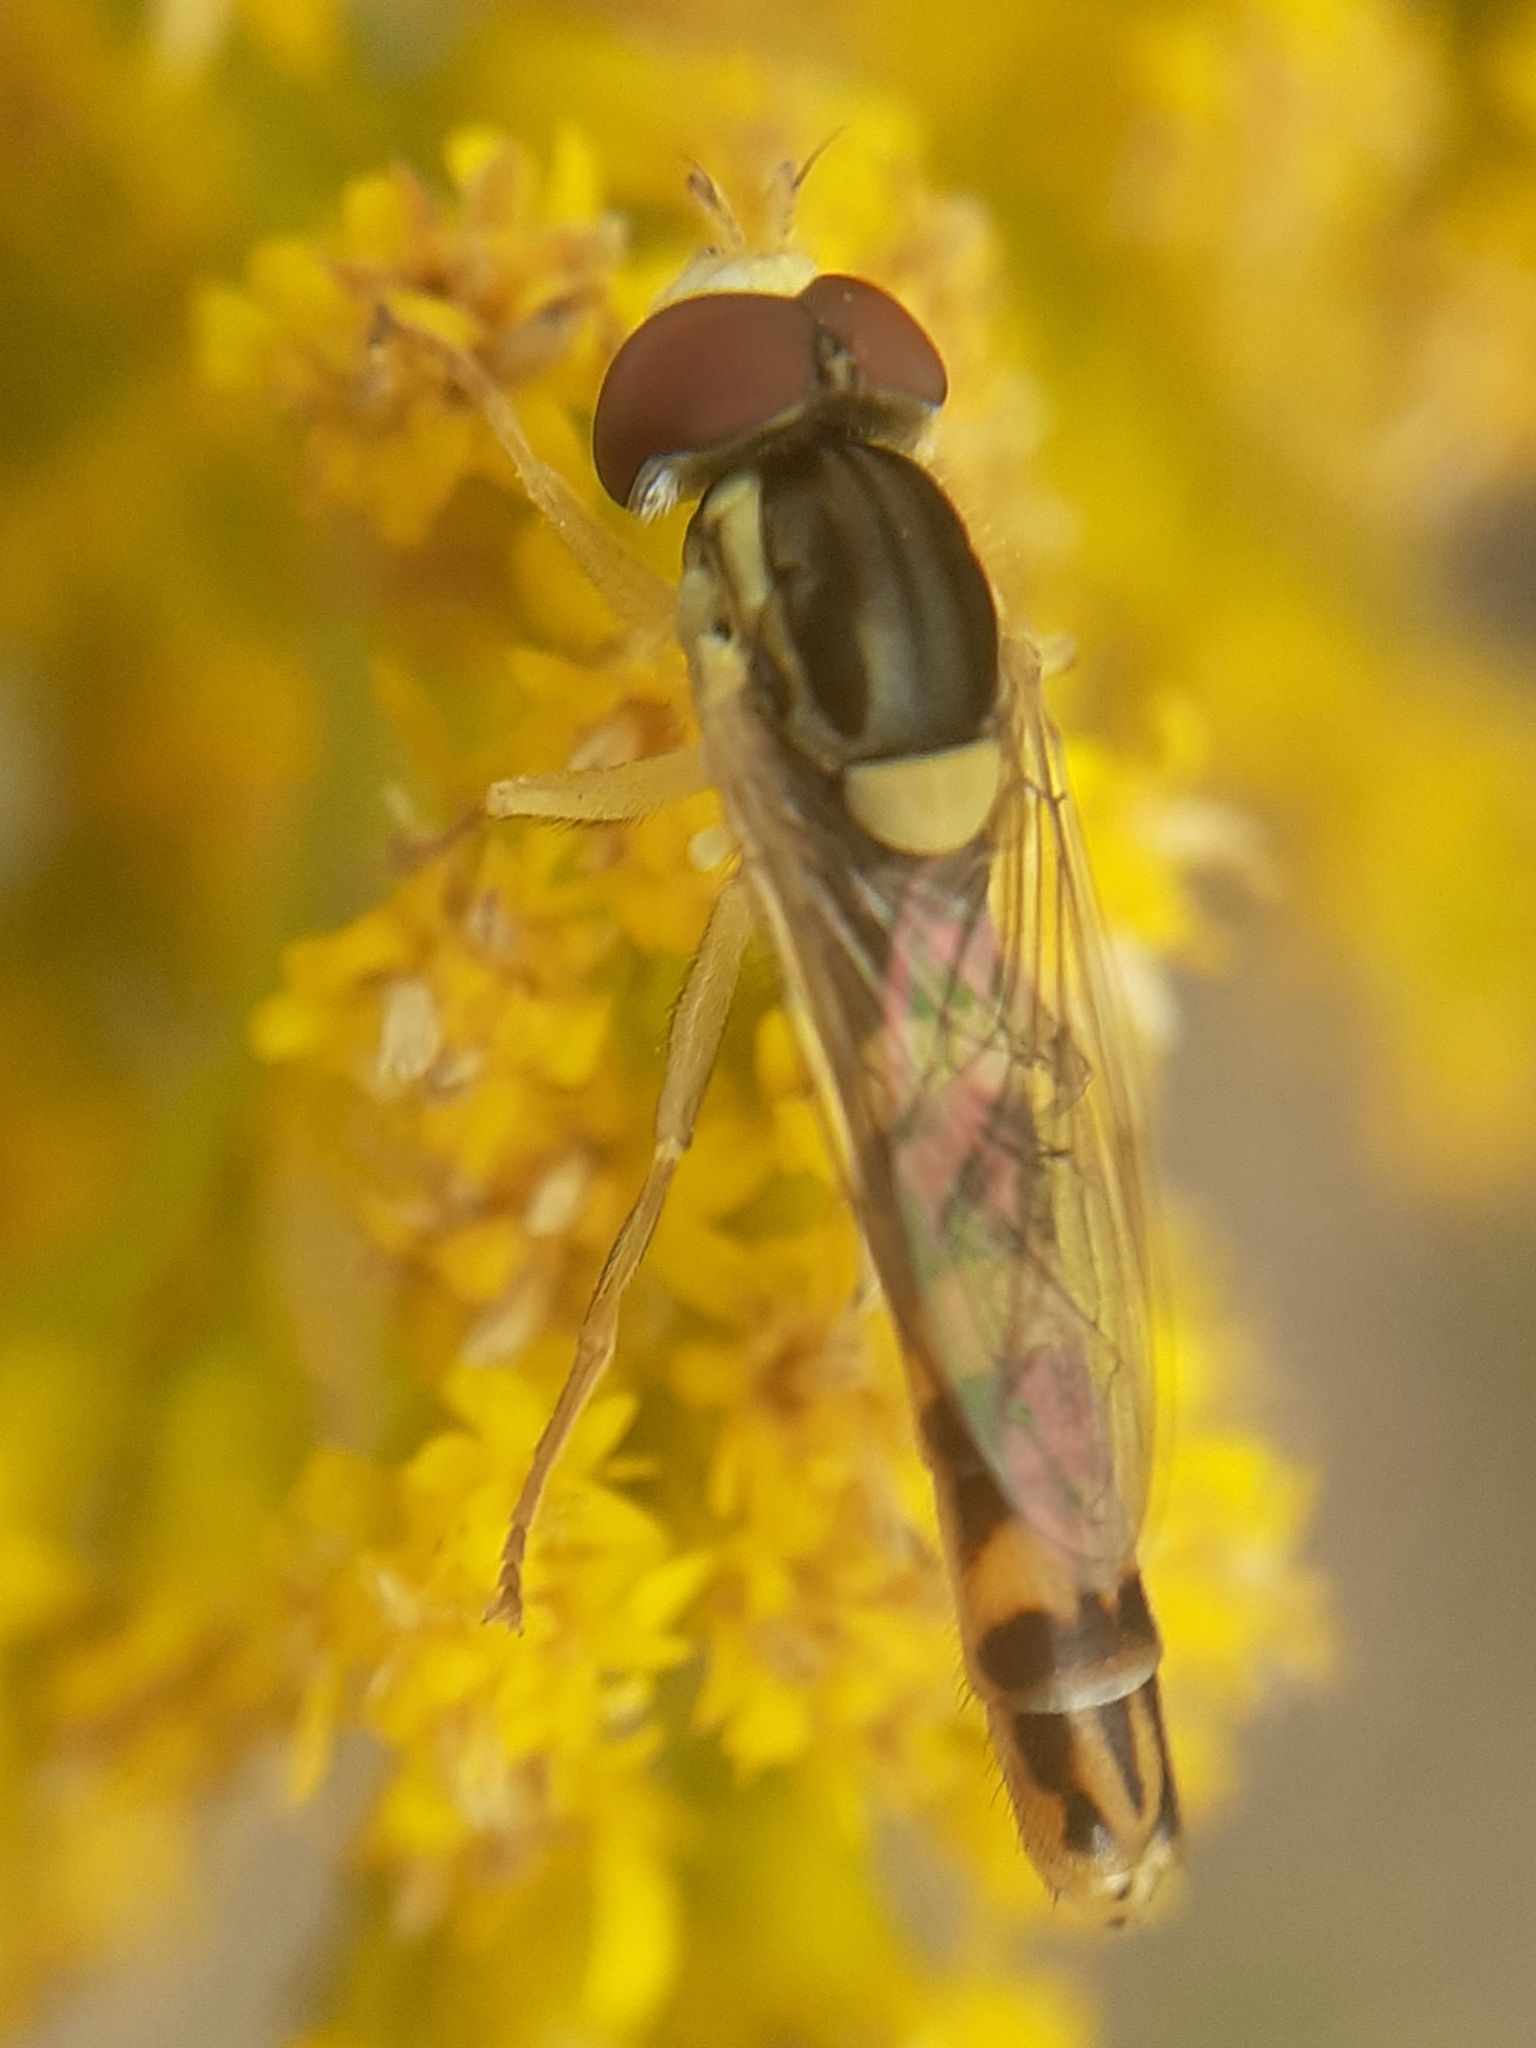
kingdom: Animalia
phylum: Arthropoda
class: Insecta
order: Diptera
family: Syrphidae
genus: Sphaerophoria
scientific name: Sphaerophoria scripta
